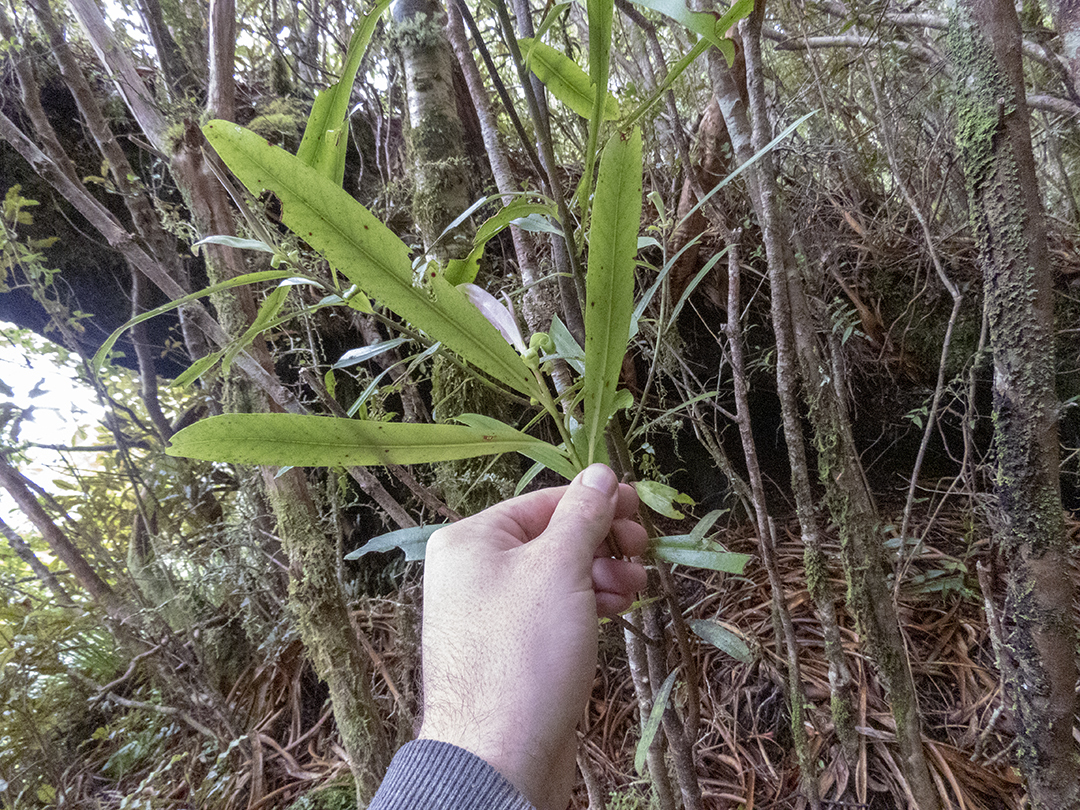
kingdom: Plantae
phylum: Tracheophyta
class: Magnoliopsida
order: Ericales
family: Primulaceae
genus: Myrsine
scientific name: Myrsine salicina
